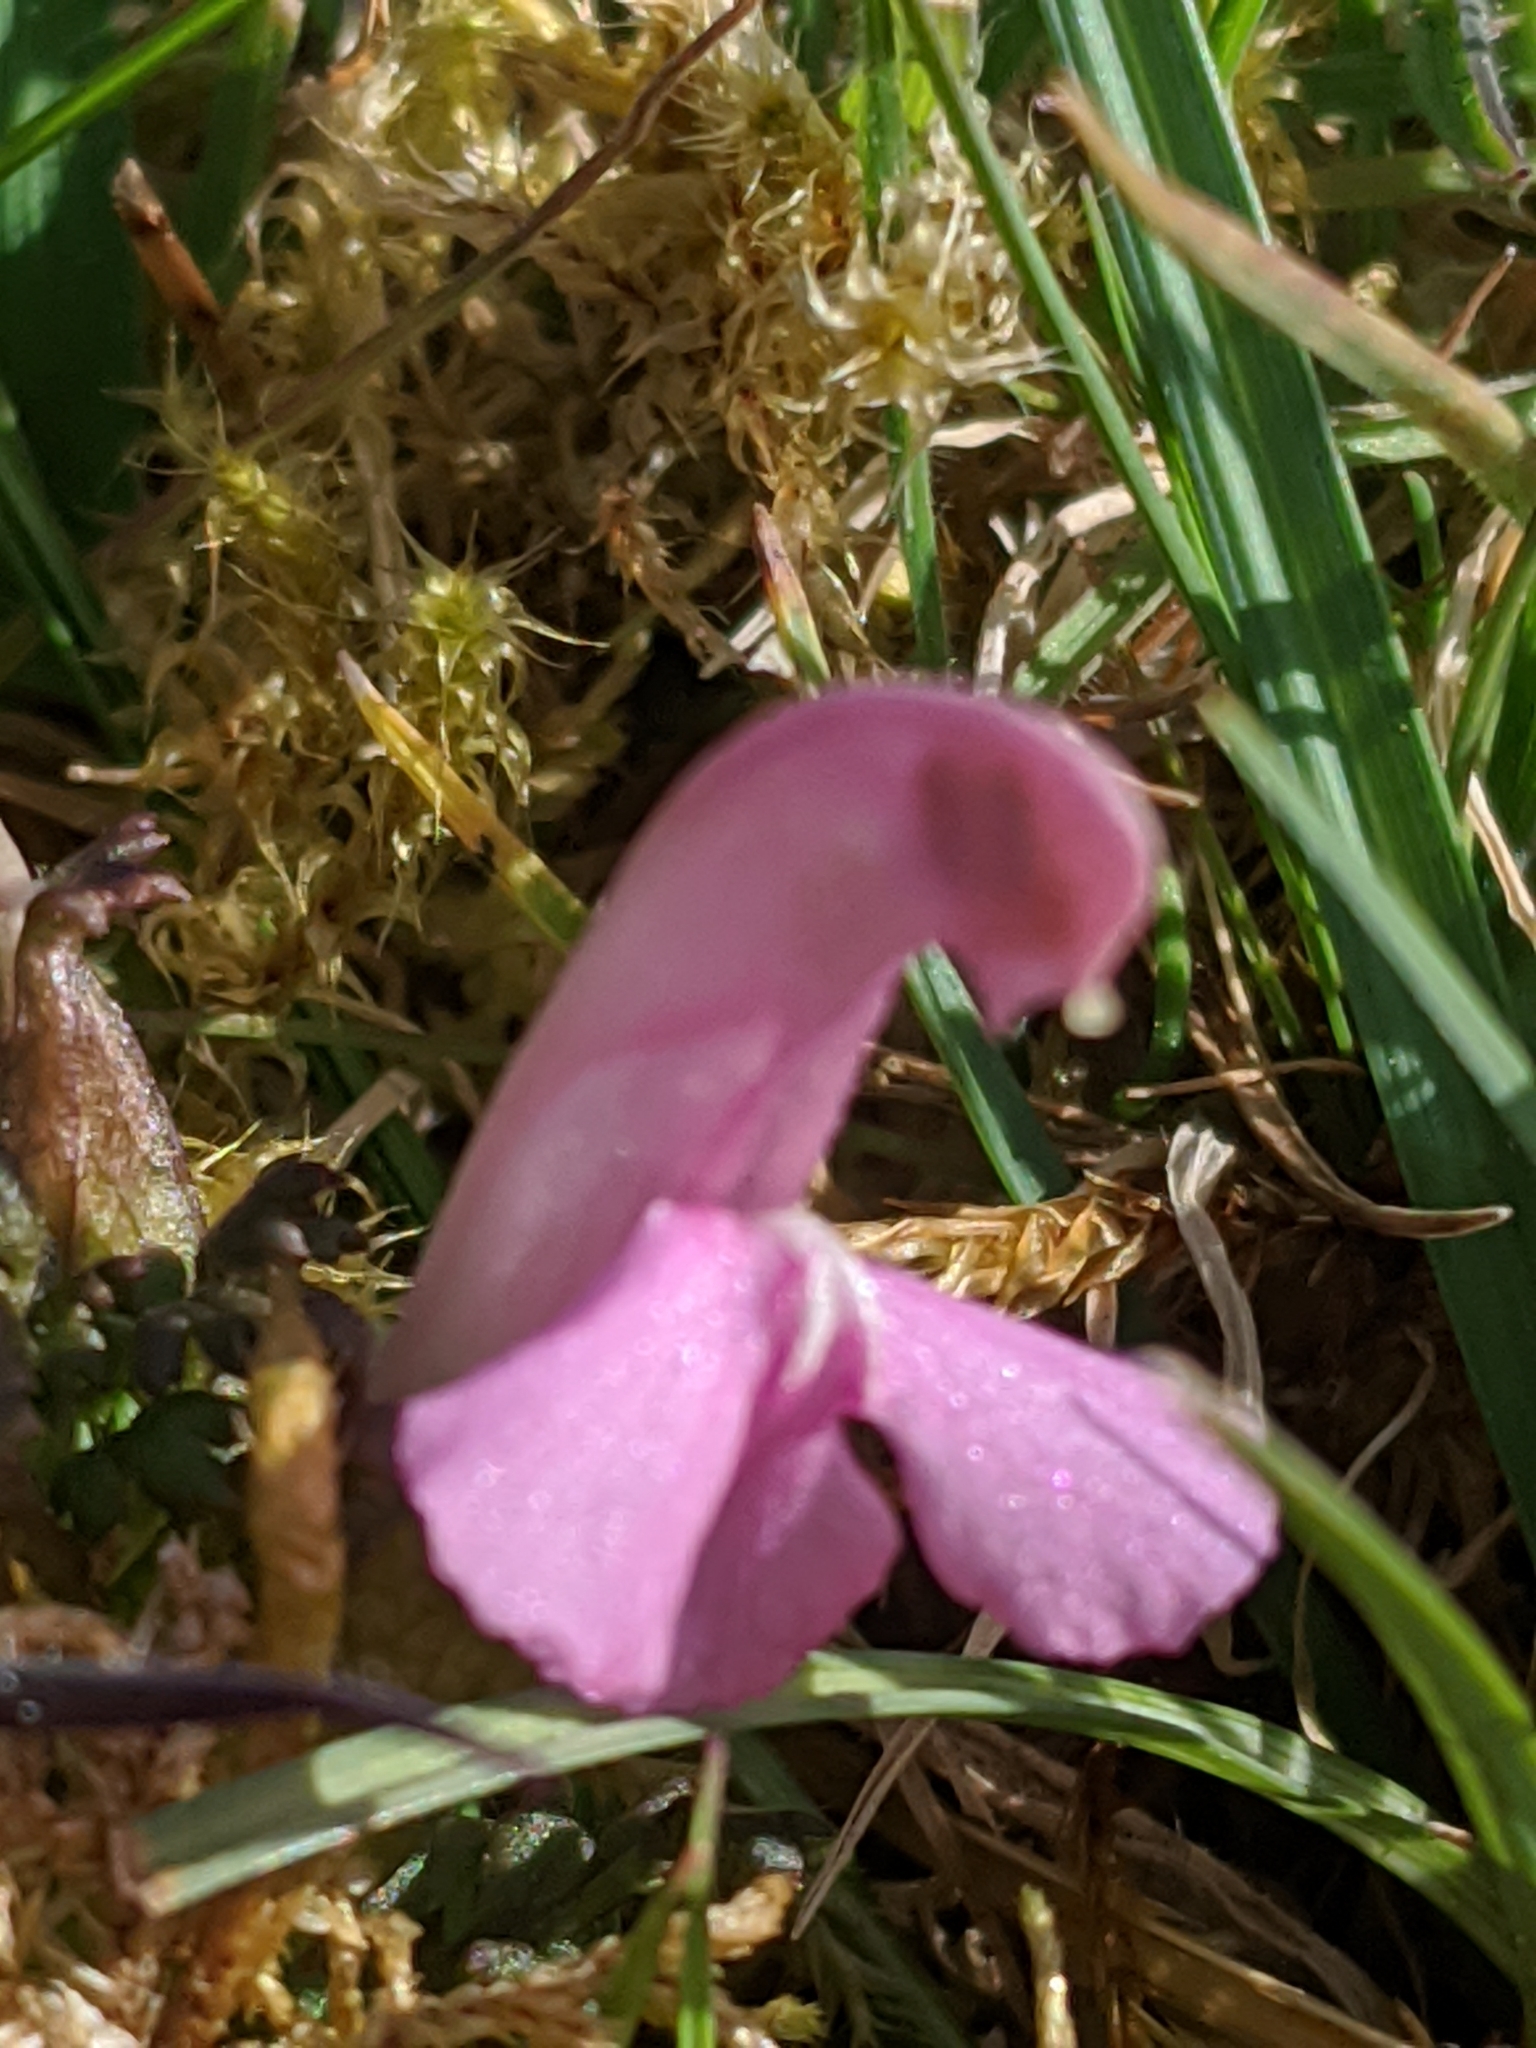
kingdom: Plantae
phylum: Tracheophyta
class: Magnoliopsida
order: Lamiales
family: Orobanchaceae
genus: Pedicularis
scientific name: Pedicularis sylvatica
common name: Lousewort
